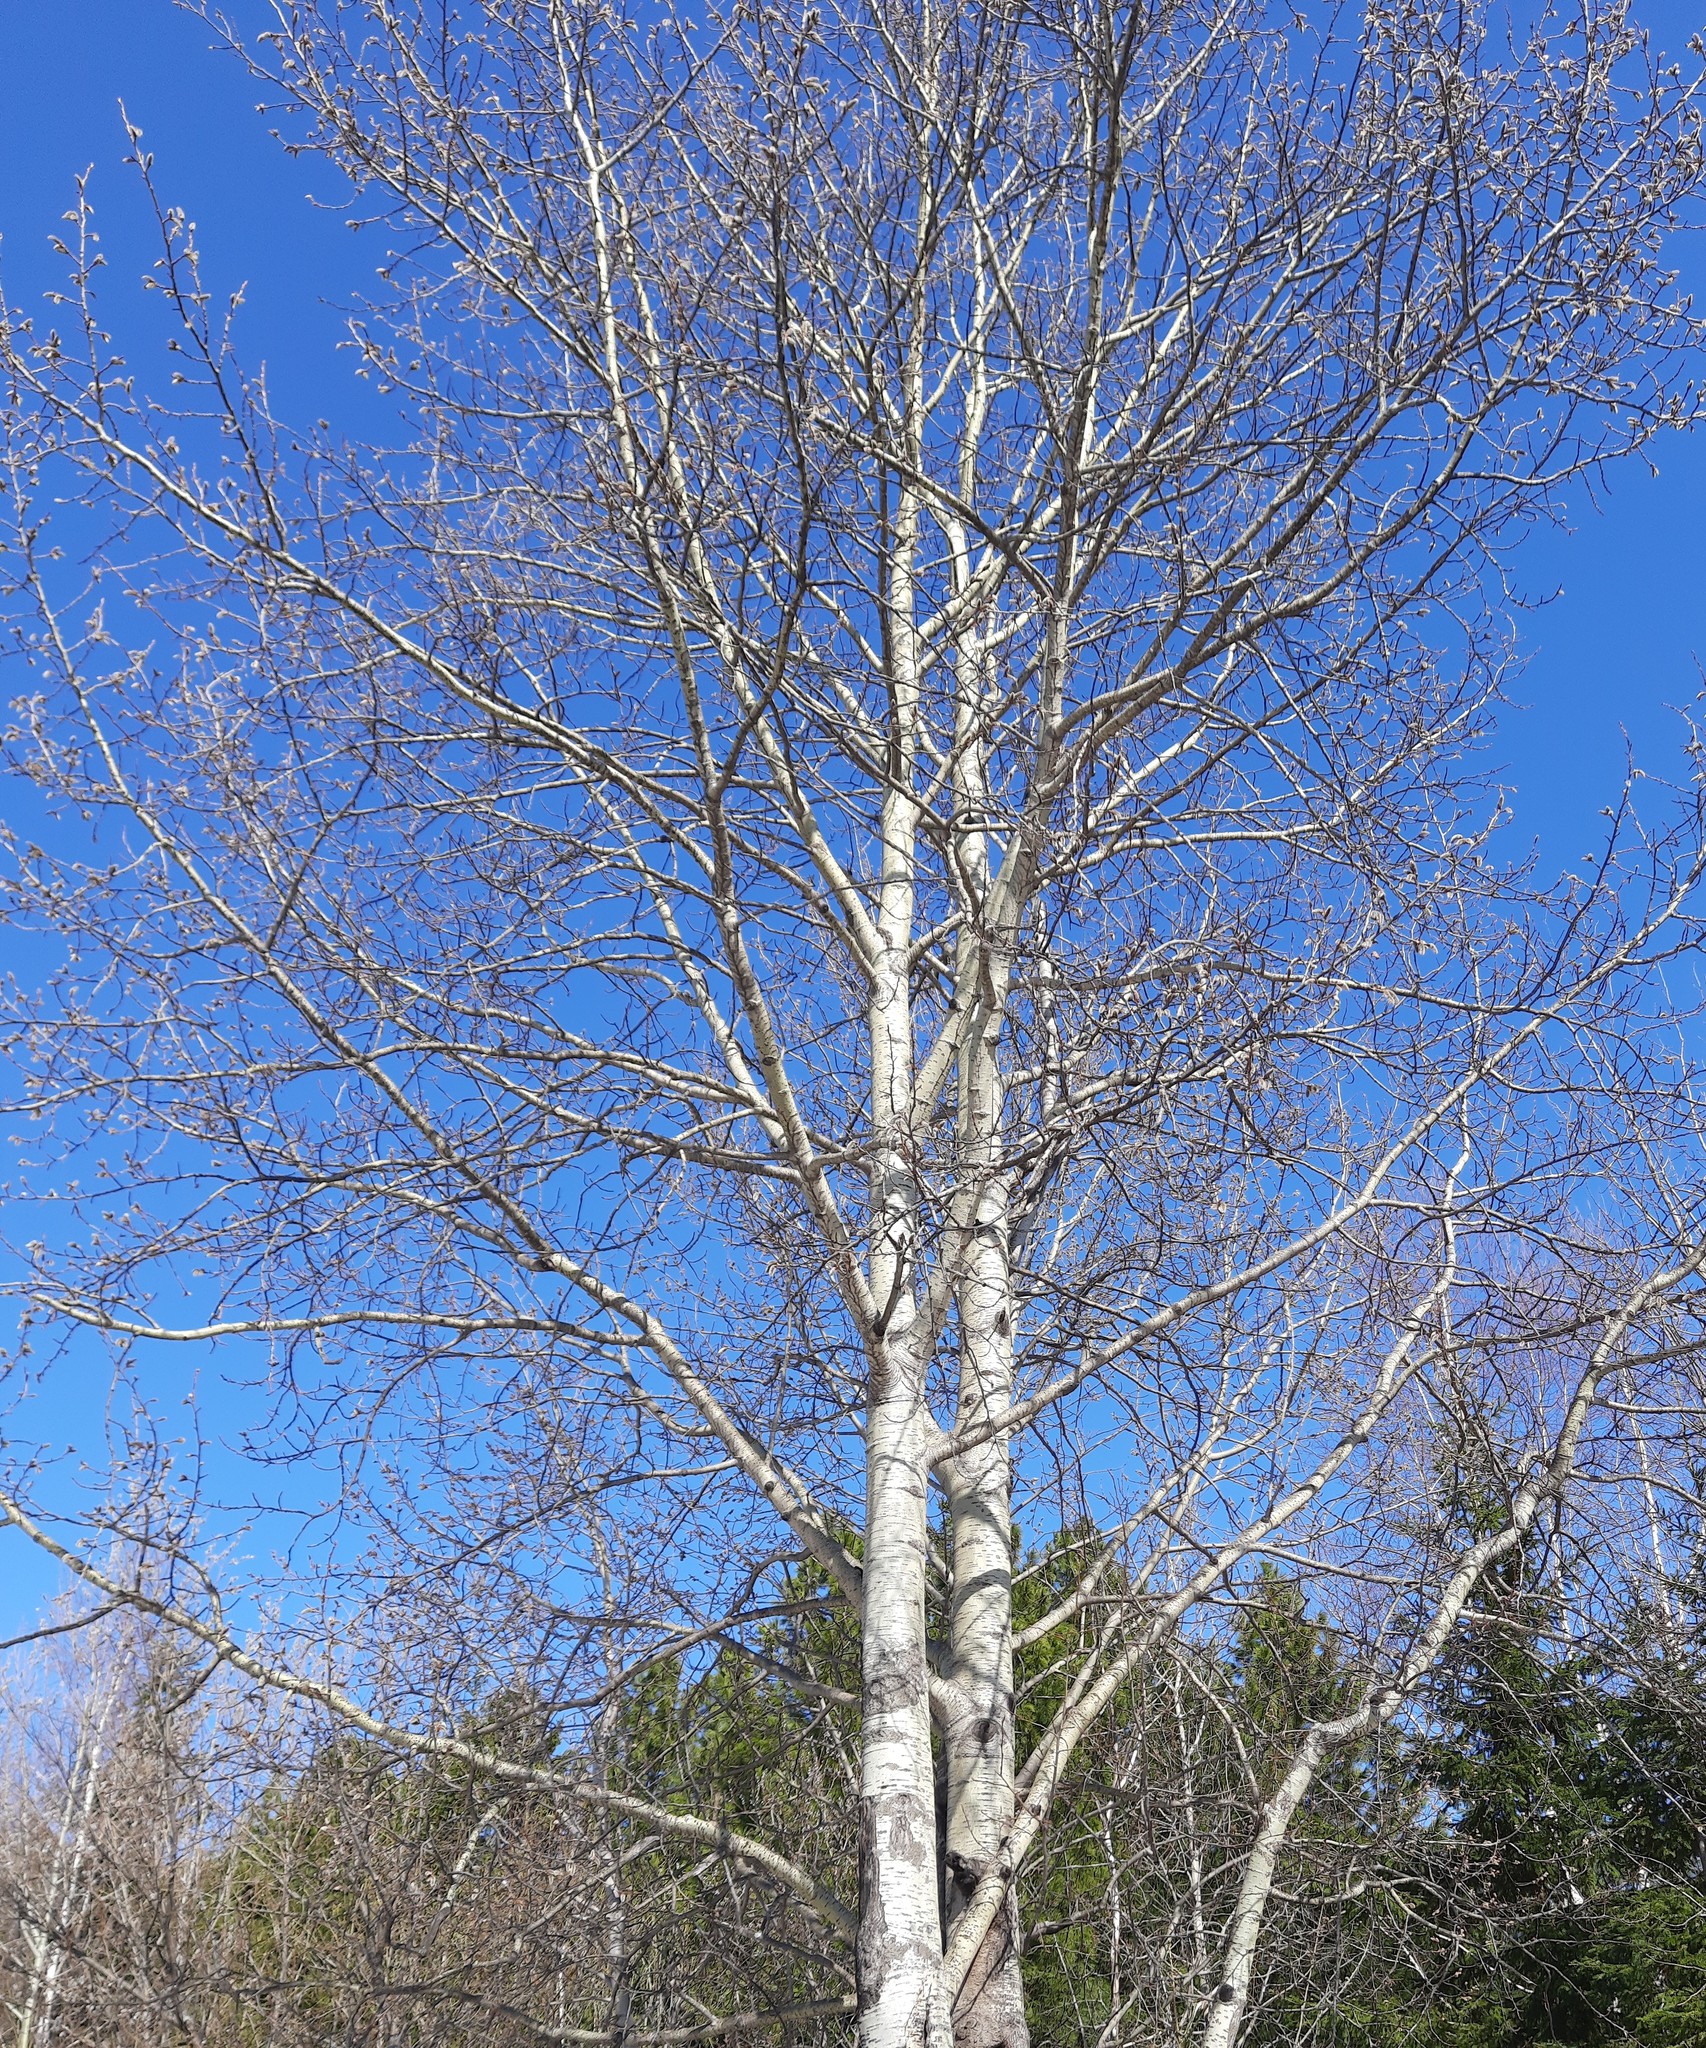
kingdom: Plantae
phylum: Tracheophyta
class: Magnoliopsida
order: Malpighiales
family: Salicaceae
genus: Populus
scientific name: Populus tremula
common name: European aspen
